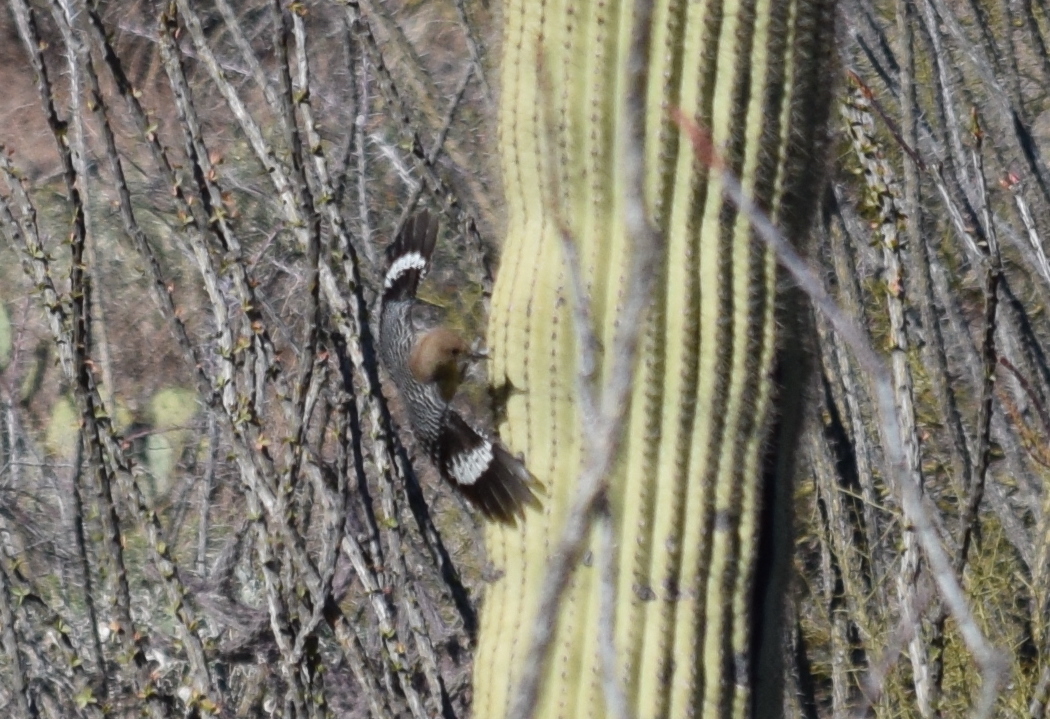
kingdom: Animalia
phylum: Chordata
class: Aves
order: Piciformes
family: Picidae
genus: Melanerpes
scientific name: Melanerpes uropygialis
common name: Gila woodpecker
